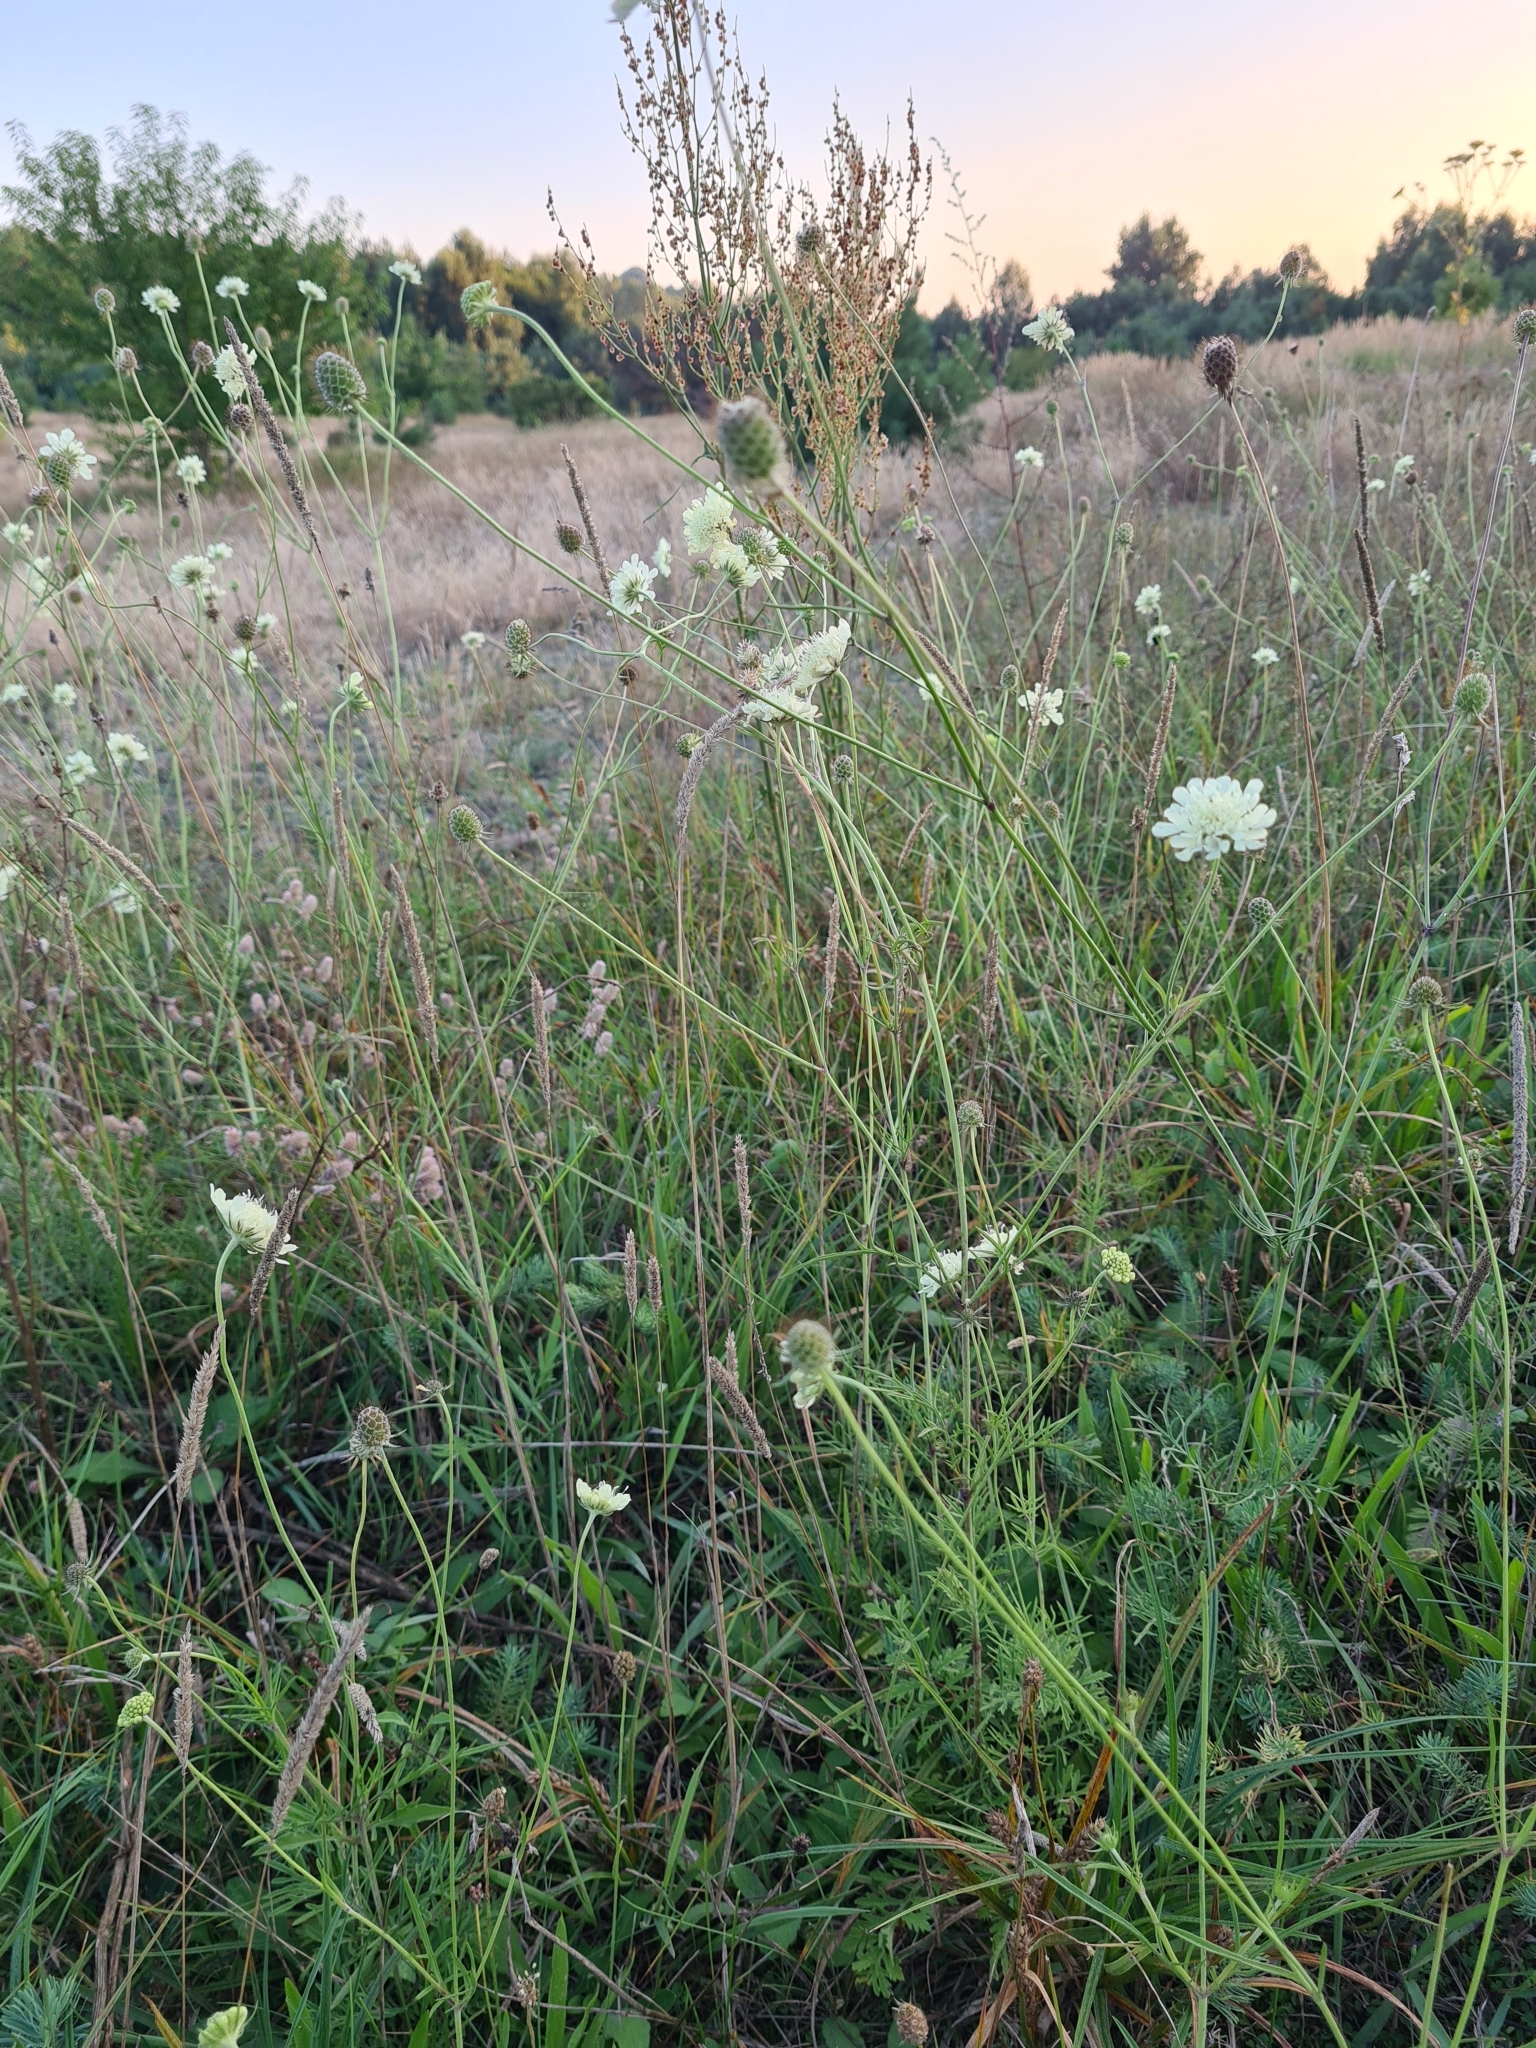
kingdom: Plantae
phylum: Tracheophyta
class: Magnoliopsida
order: Dipsacales
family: Caprifoliaceae
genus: Scabiosa
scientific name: Scabiosa ochroleuca
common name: Cream pincushions
